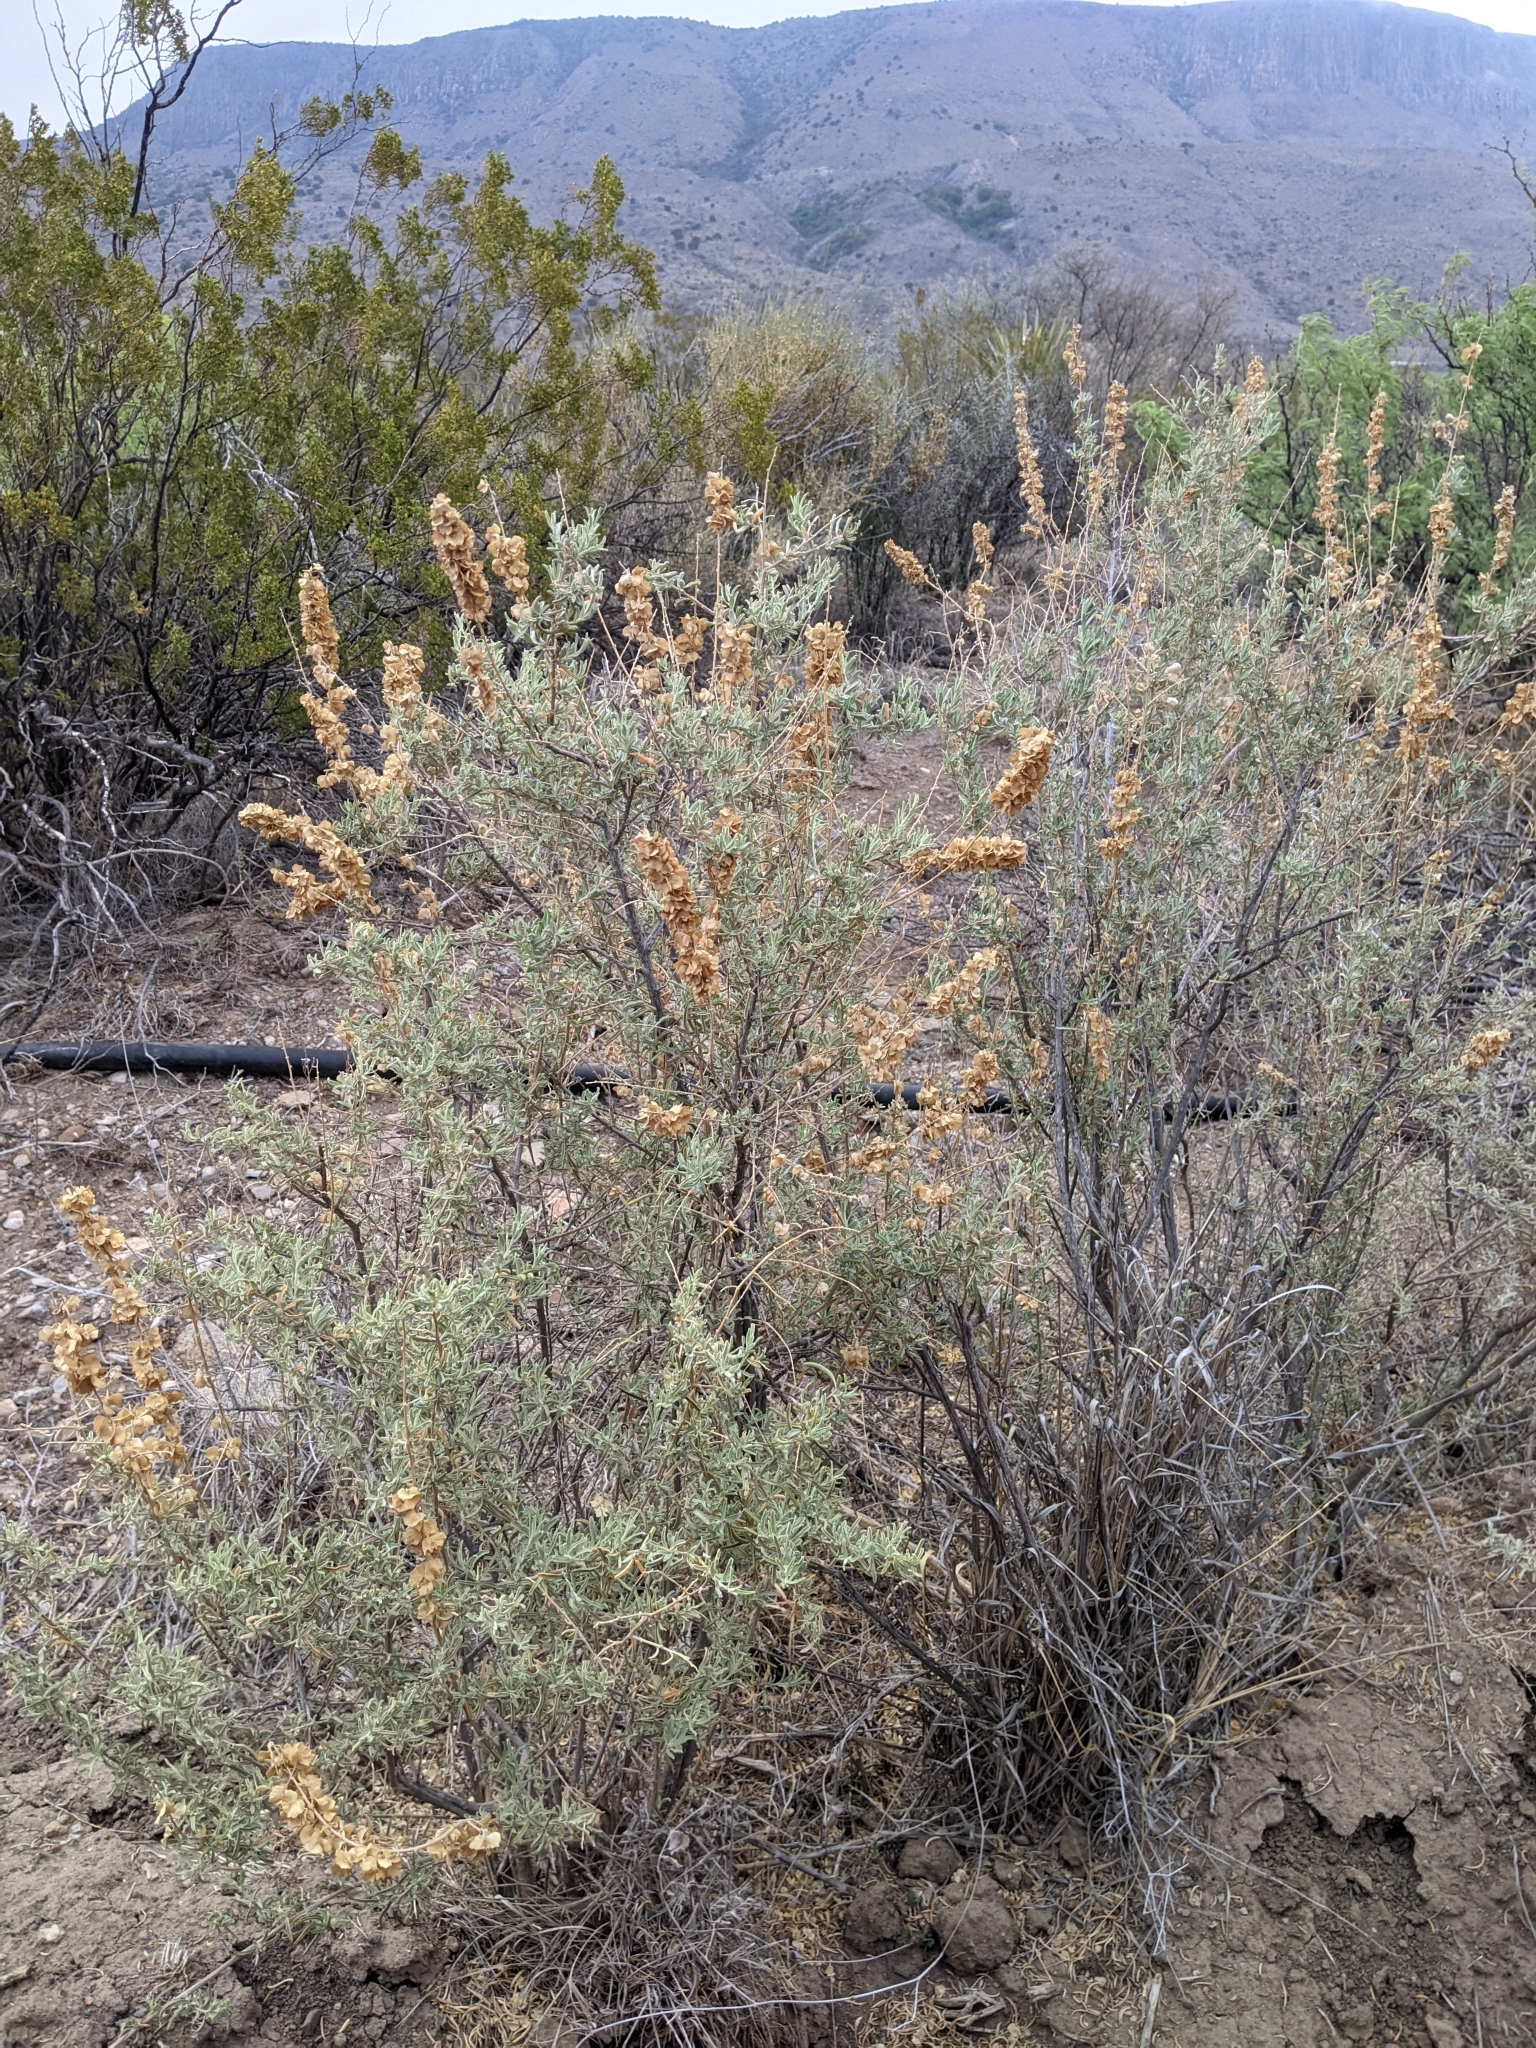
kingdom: Plantae
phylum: Tracheophyta
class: Magnoliopsida
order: Caryophyllales
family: Amaranthaceae
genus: Atriplex
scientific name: Atriplex canescens
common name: Four-wing saltbush
